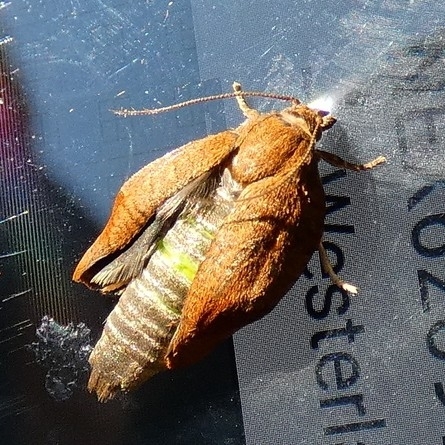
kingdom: Animalia
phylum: Arthropoda
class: Insecta
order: Lepidoptera
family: Tortricidae
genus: Cacoecimorpha
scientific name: Cacoecimorpha pronubana
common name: Carnation tortrix
